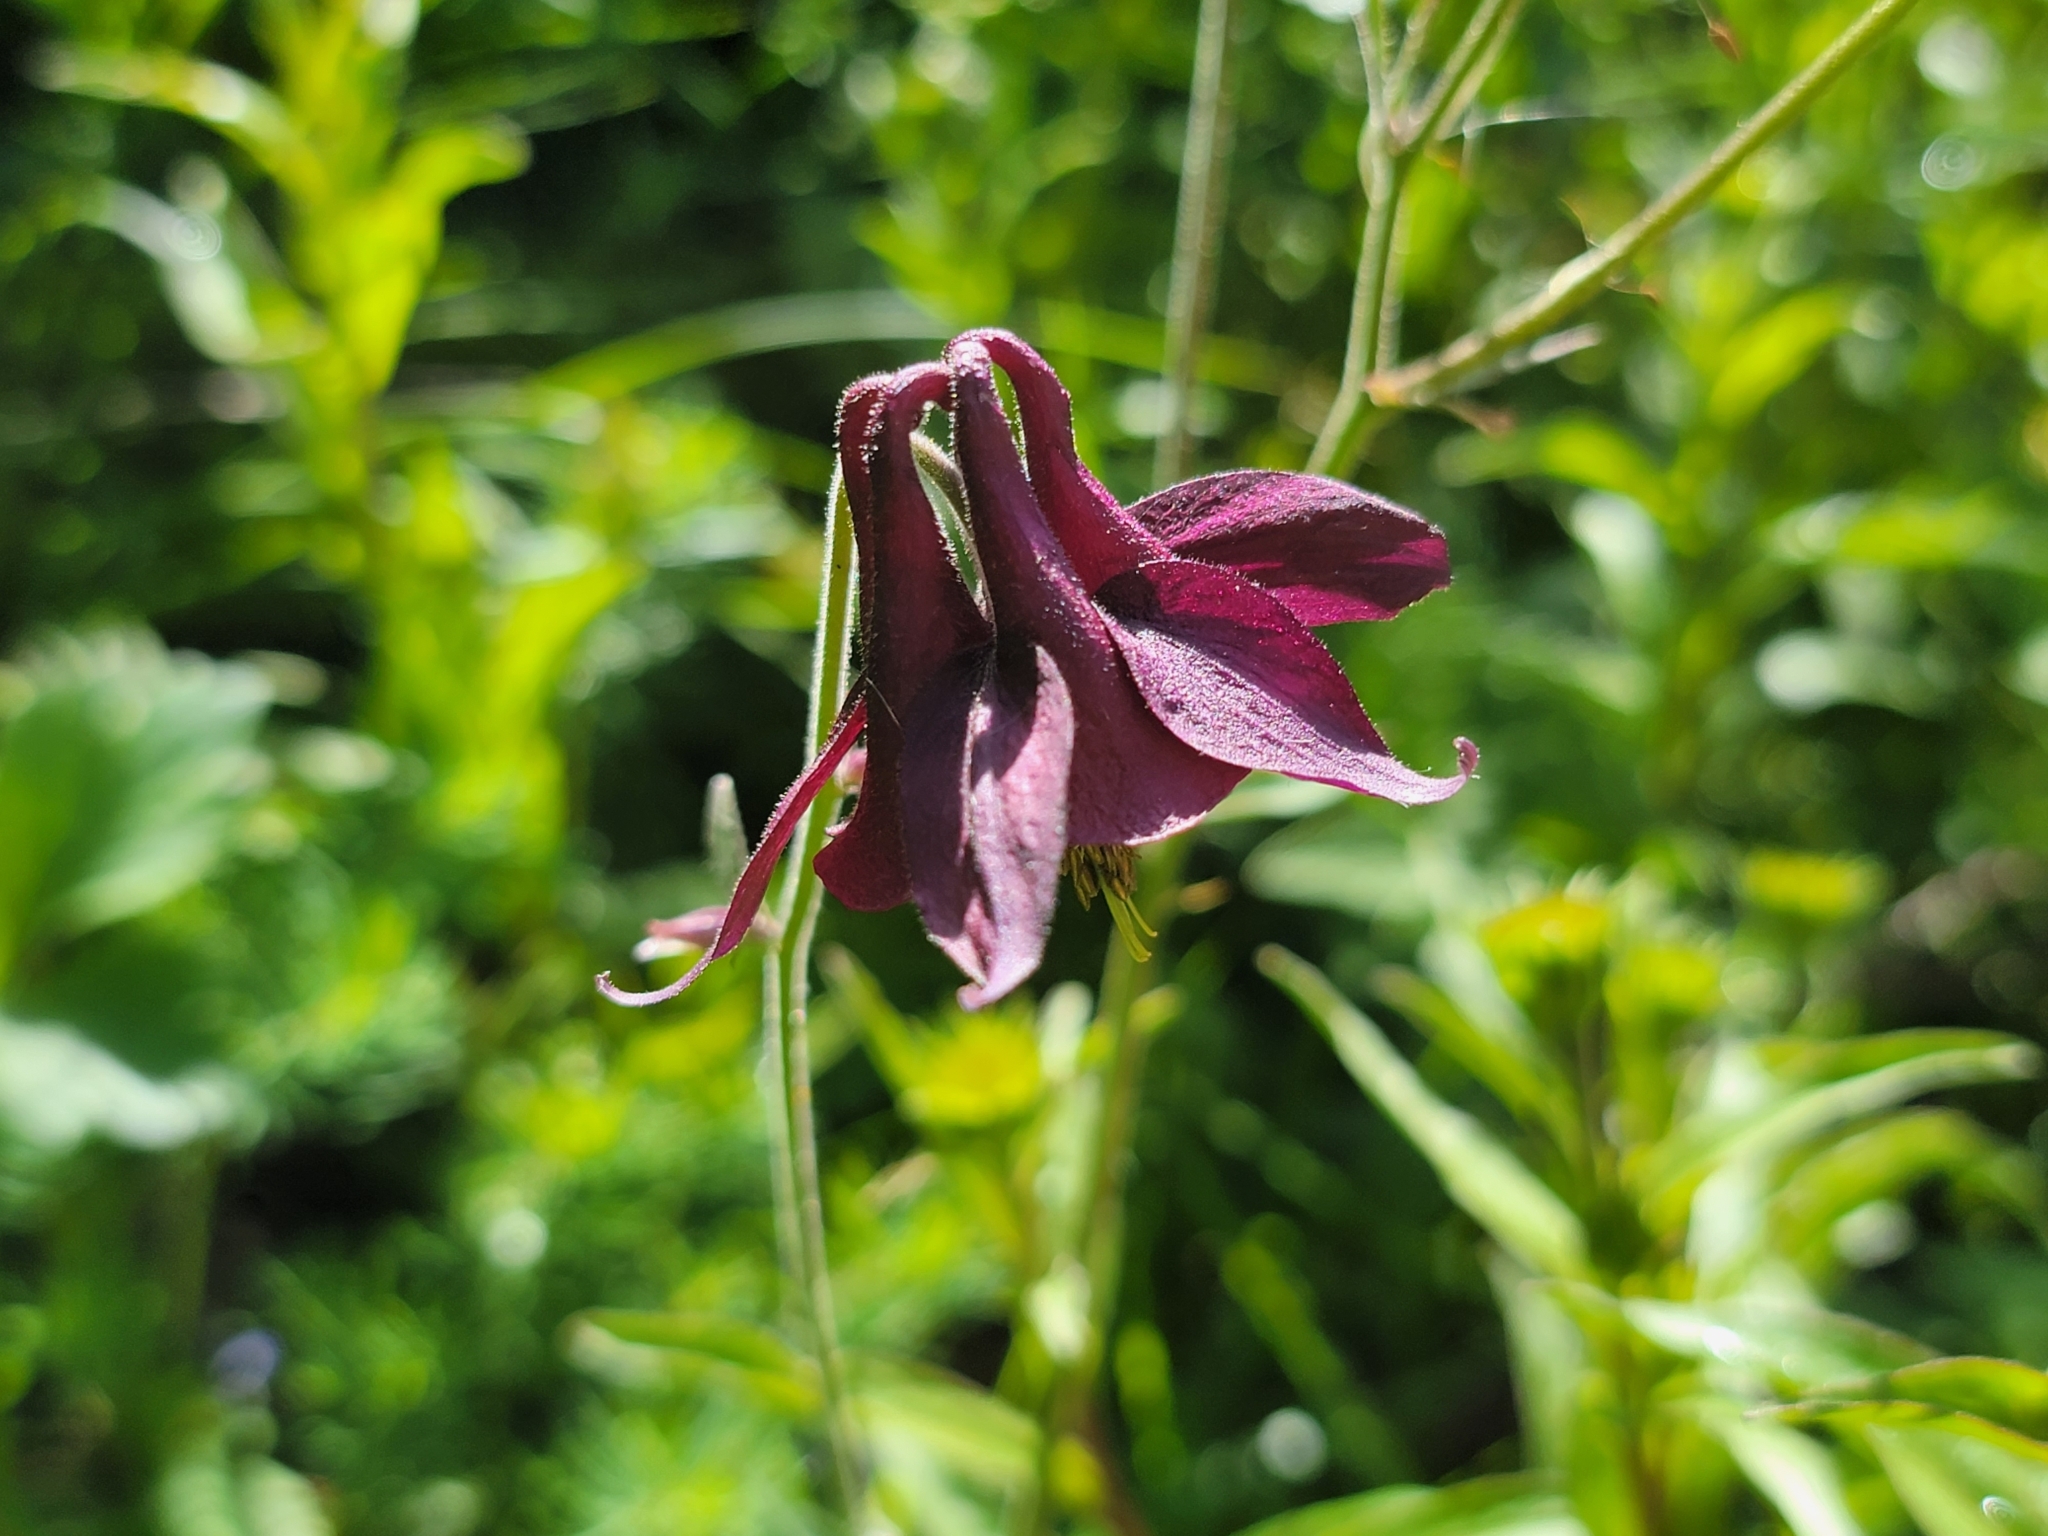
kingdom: Plantae
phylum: Tracheophyta
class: Magnoliopsida
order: Ranunculales
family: Ranunculaceae
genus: Aquilegia
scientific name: Aquilegia atrata
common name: Dark columbine
